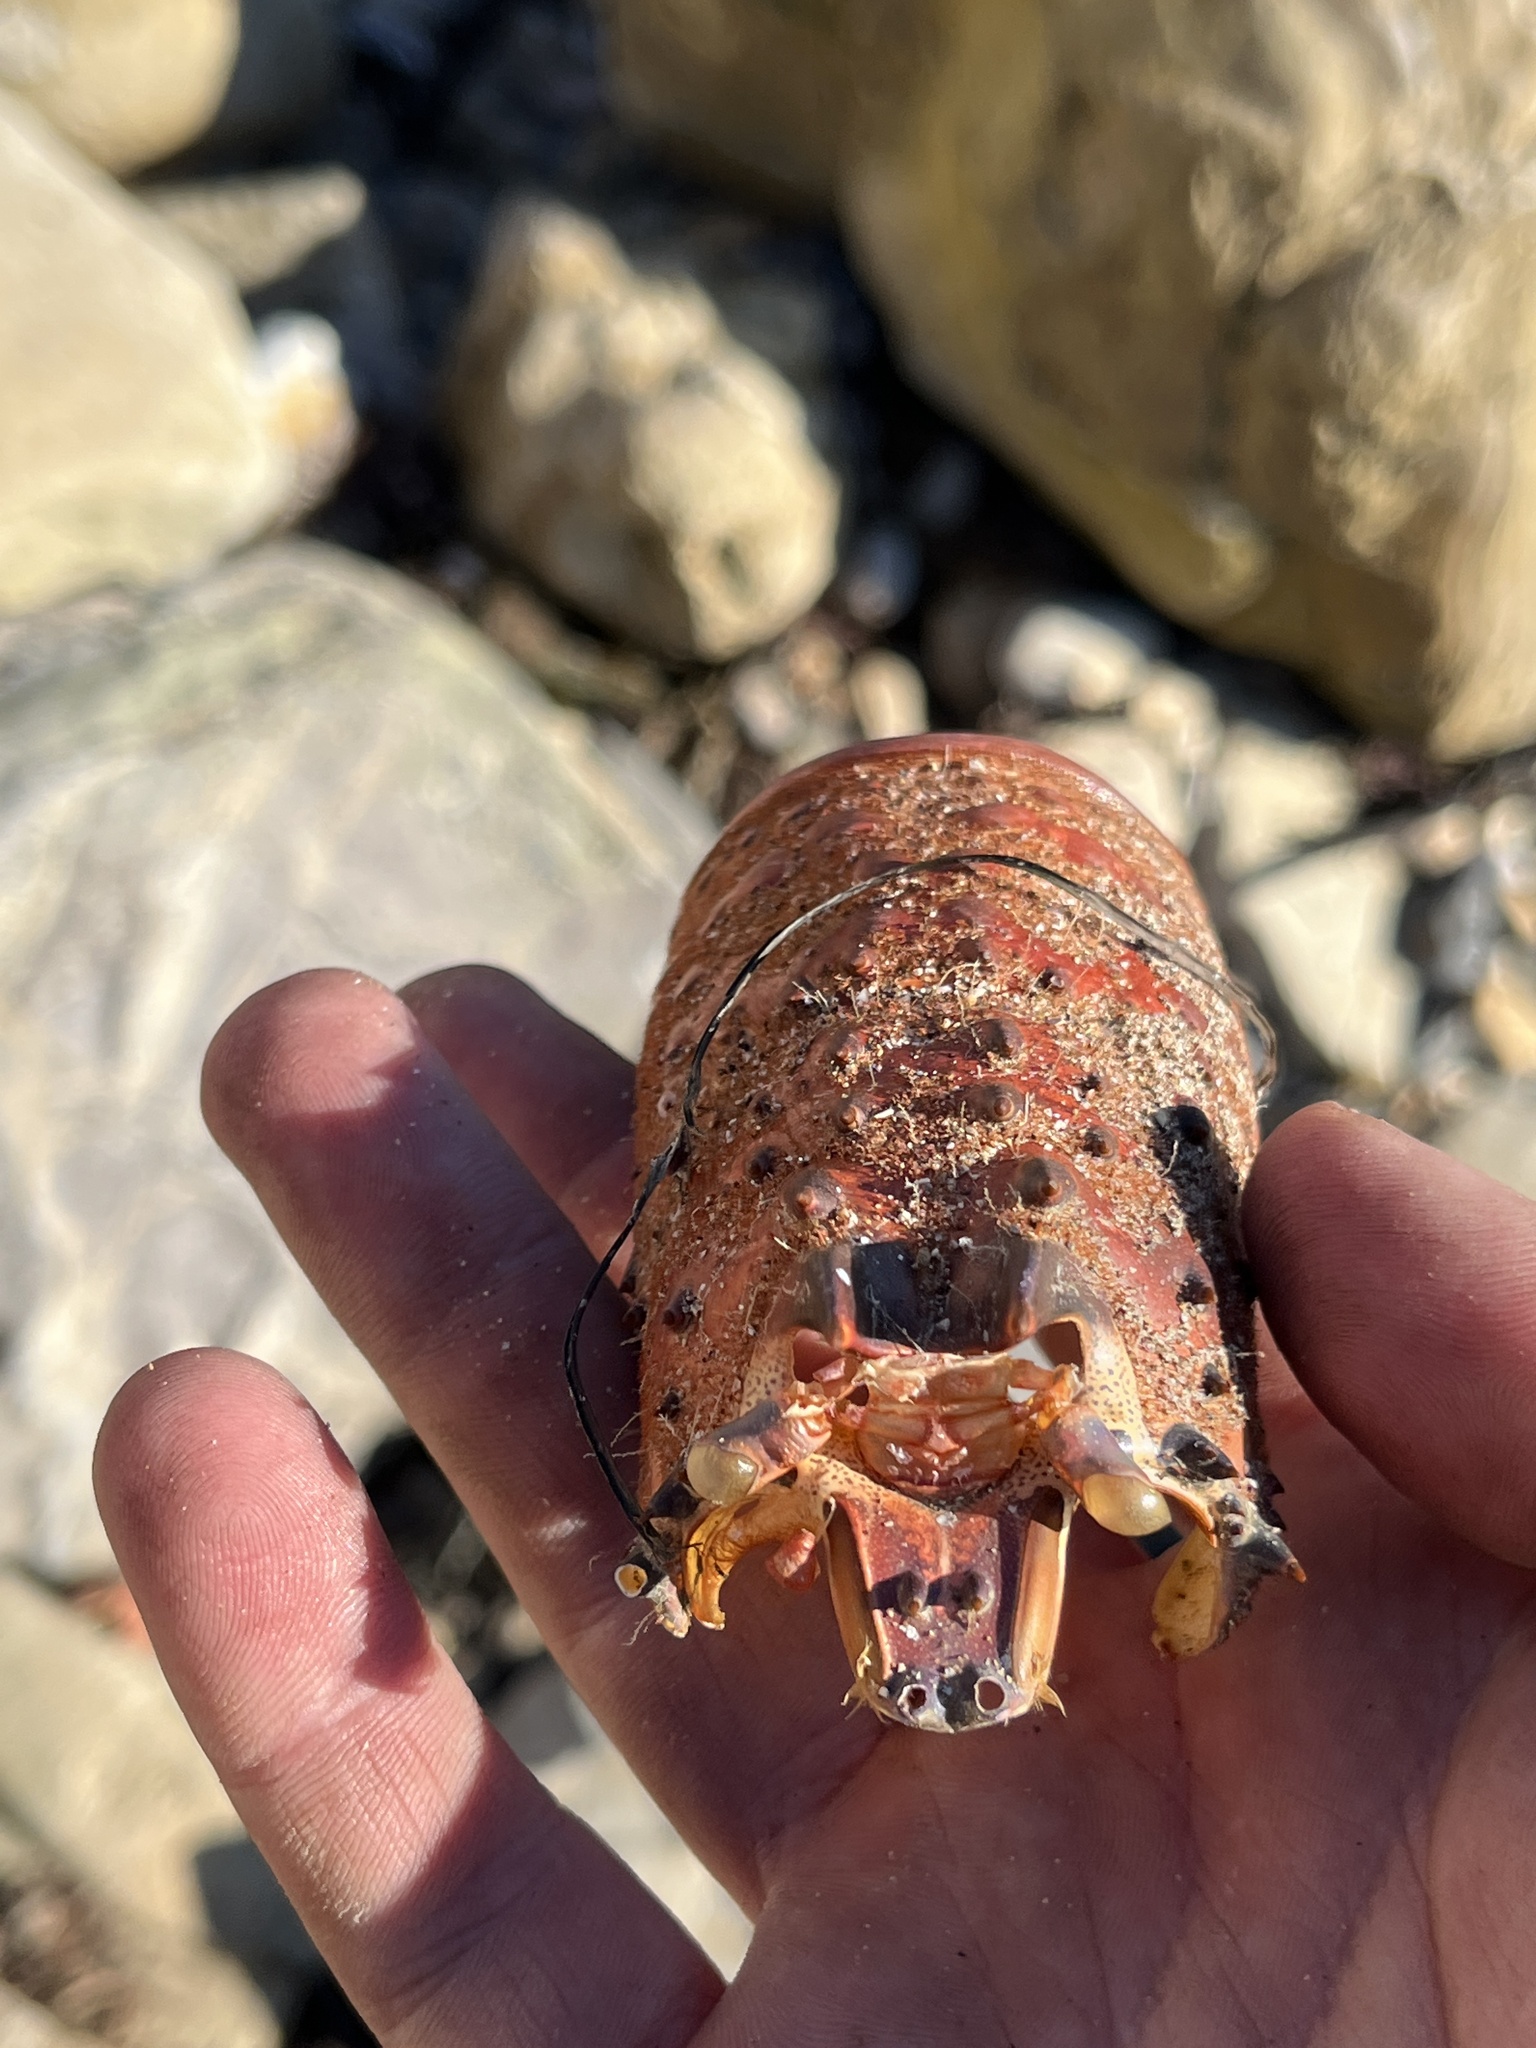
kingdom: Animalia
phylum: Arthropoda
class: Malacostraca
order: Decapoda
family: Palinuridae
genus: Panulirus
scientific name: Panulirus interruptus
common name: California spiny lobster
